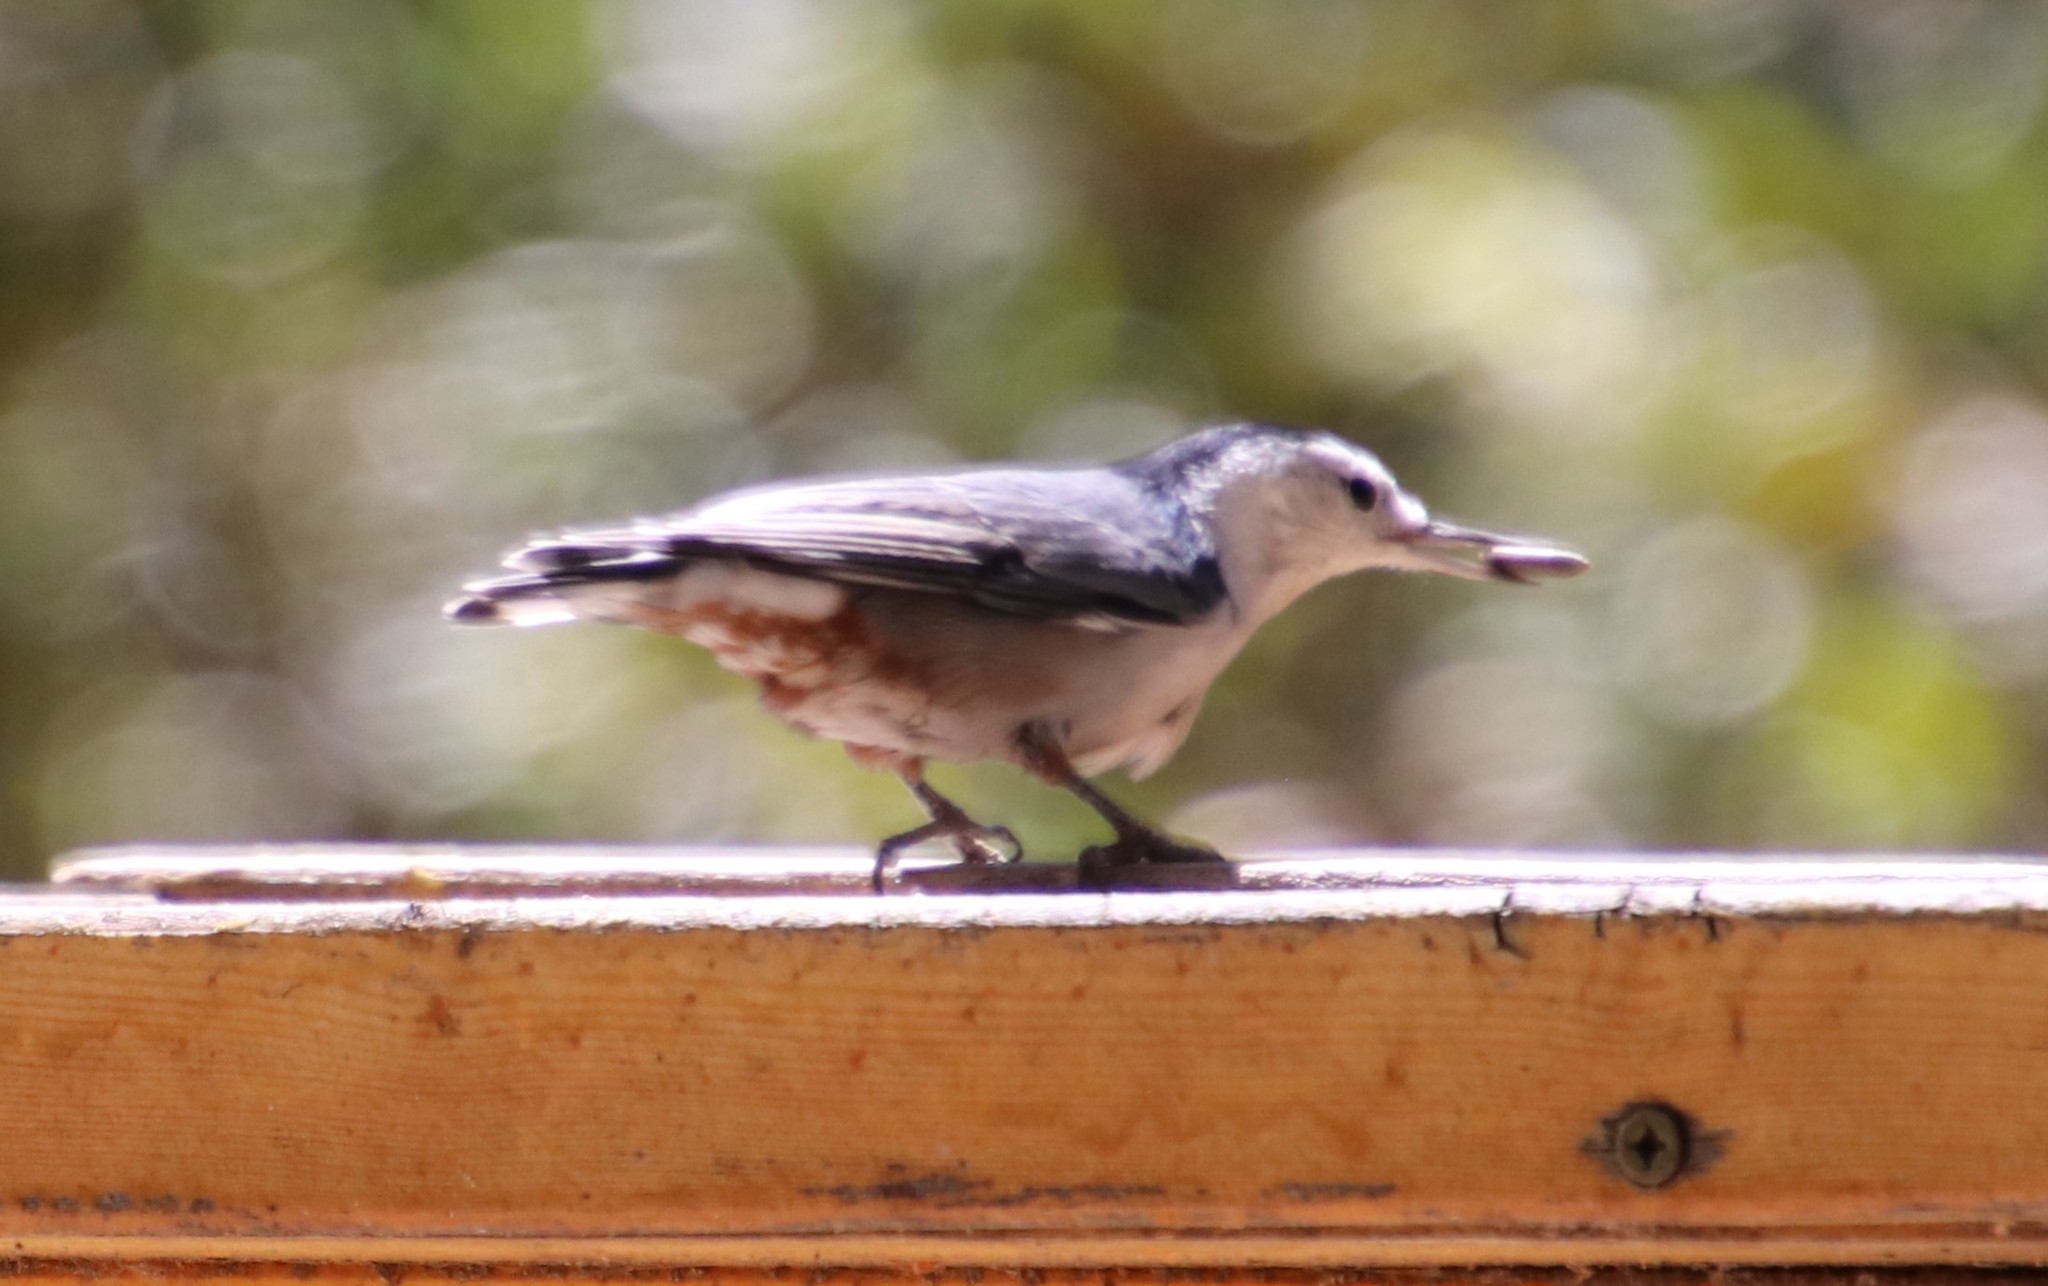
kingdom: Animalia
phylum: Chordata
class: Aves
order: Passeriformes
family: Sittidae
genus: Sitta
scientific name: Sitta carolinensis
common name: White-breasted nuthatch
